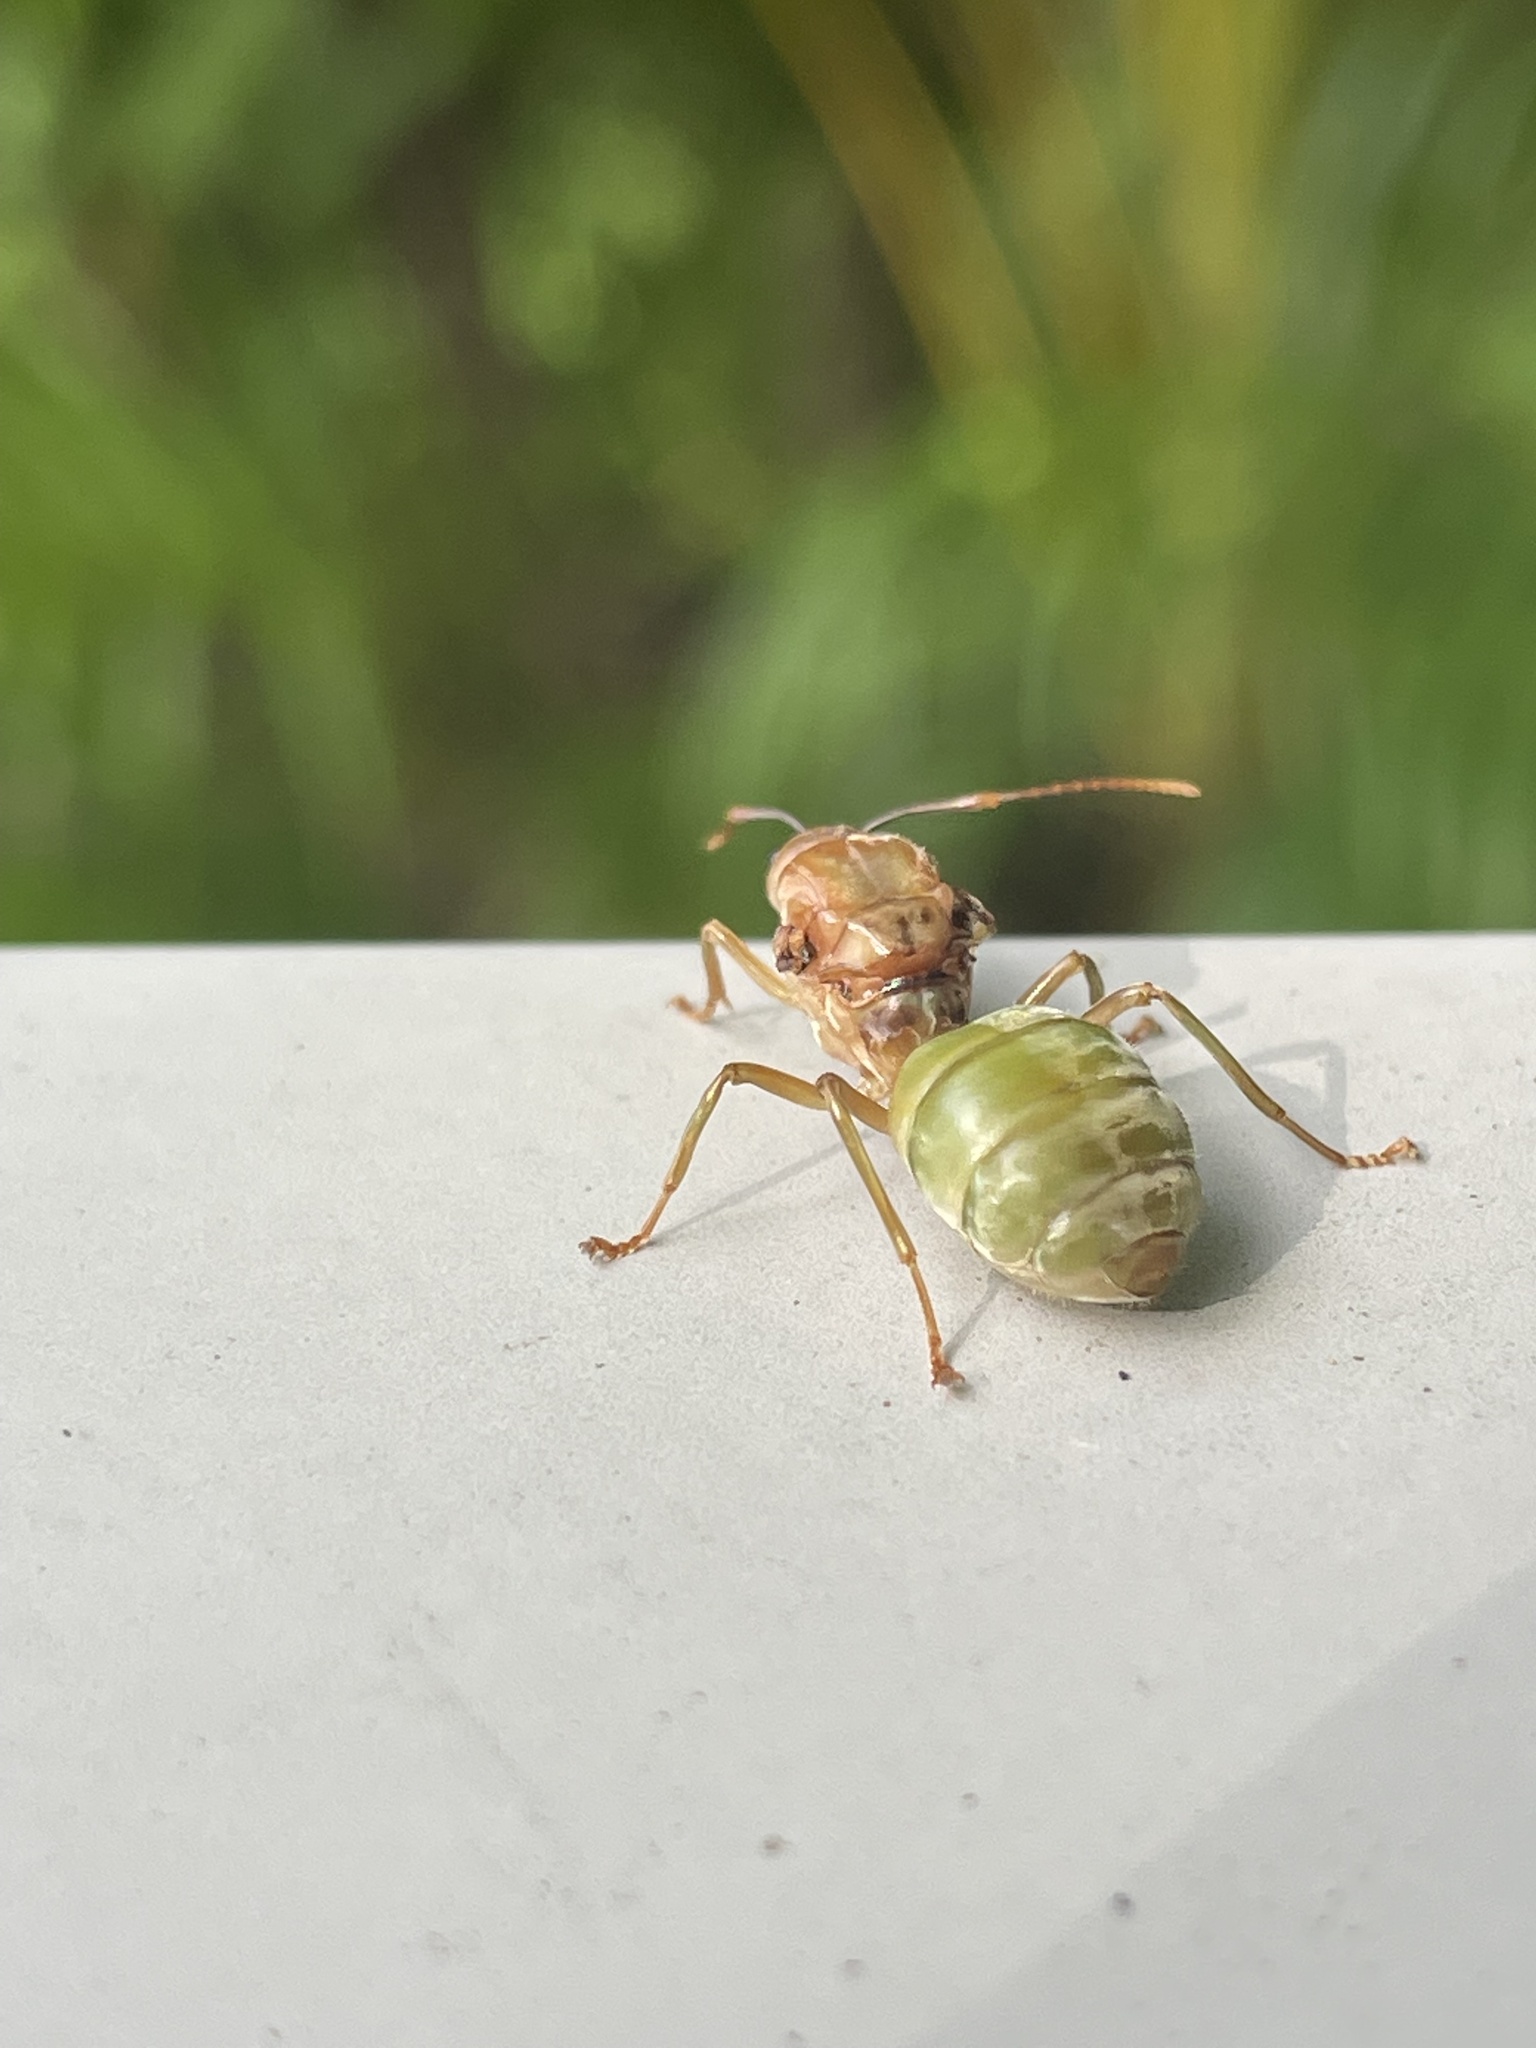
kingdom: Animalia
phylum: Arthropoda
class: Insecta
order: Hymenoptera
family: Formicidae
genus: Oecophylla
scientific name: Oecophylla smaragdina
